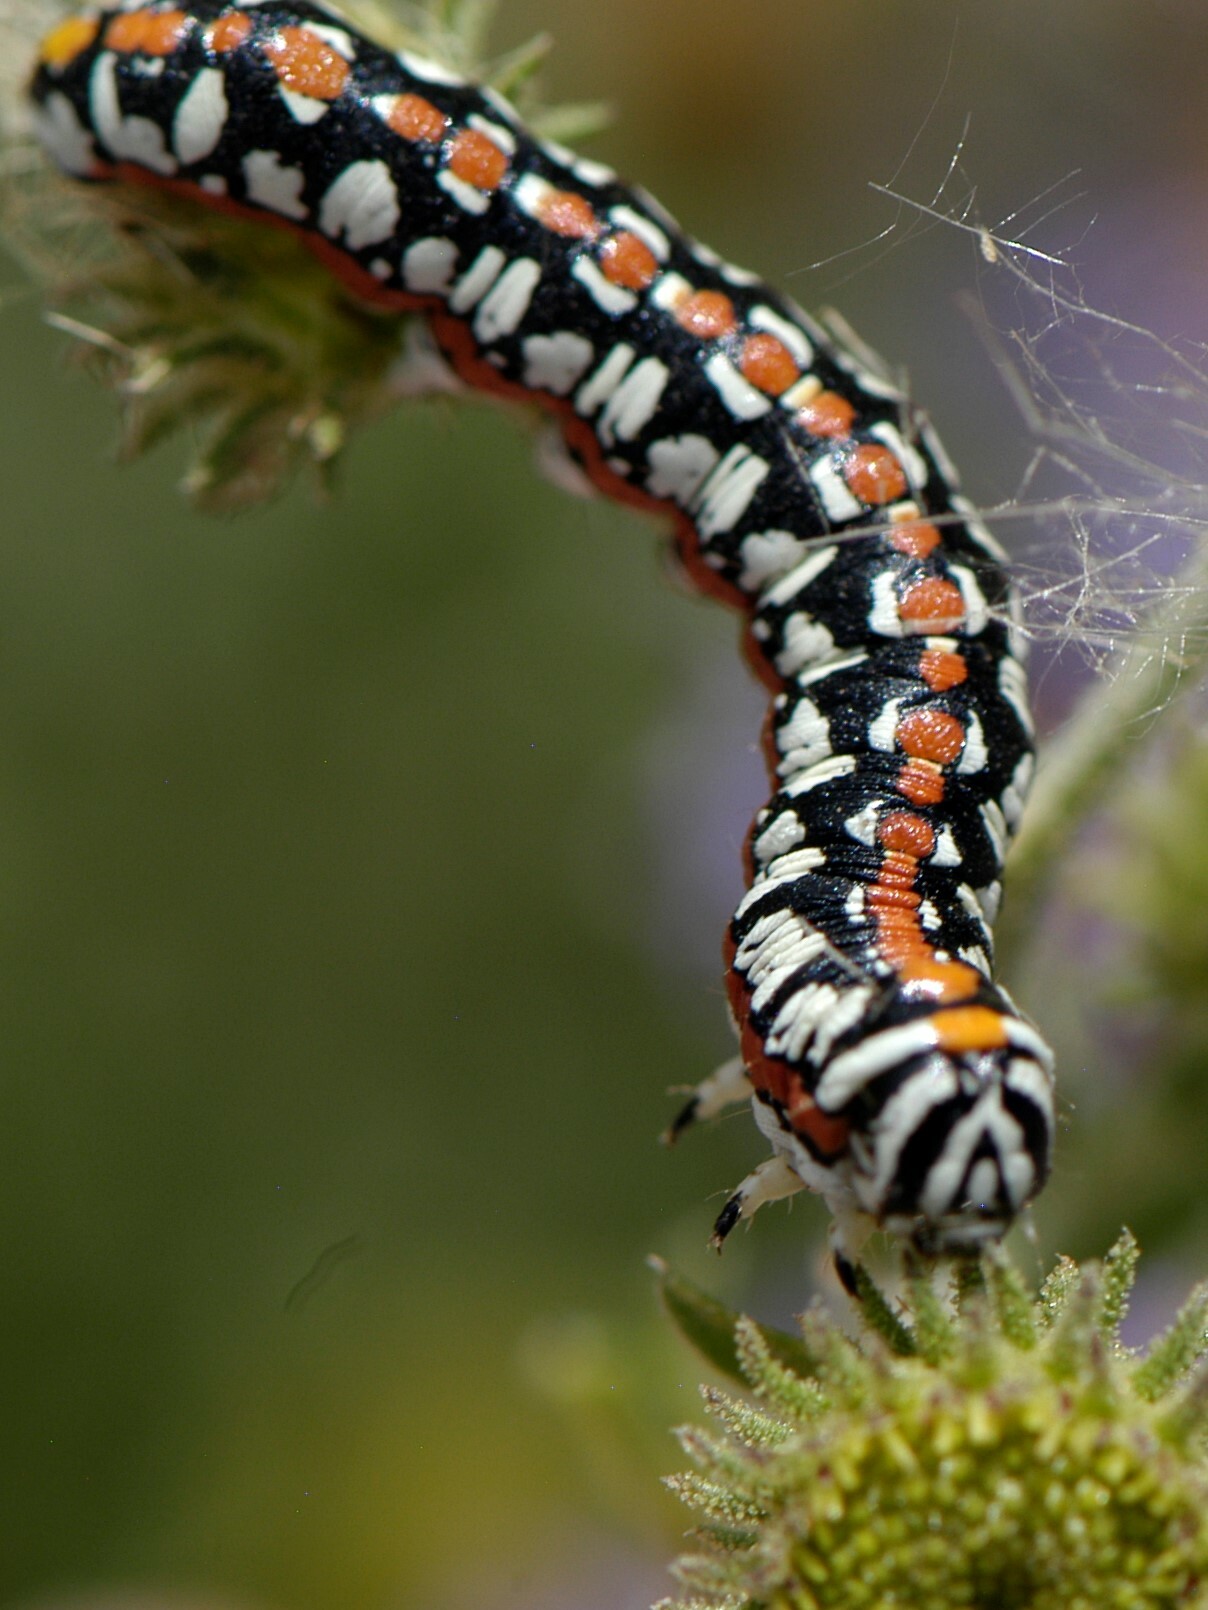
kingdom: Animalia
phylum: Arthropoda
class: Insecta
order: Lepidoptera
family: Noctuidae
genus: Cucullia
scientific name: Cucullia dorsalis
